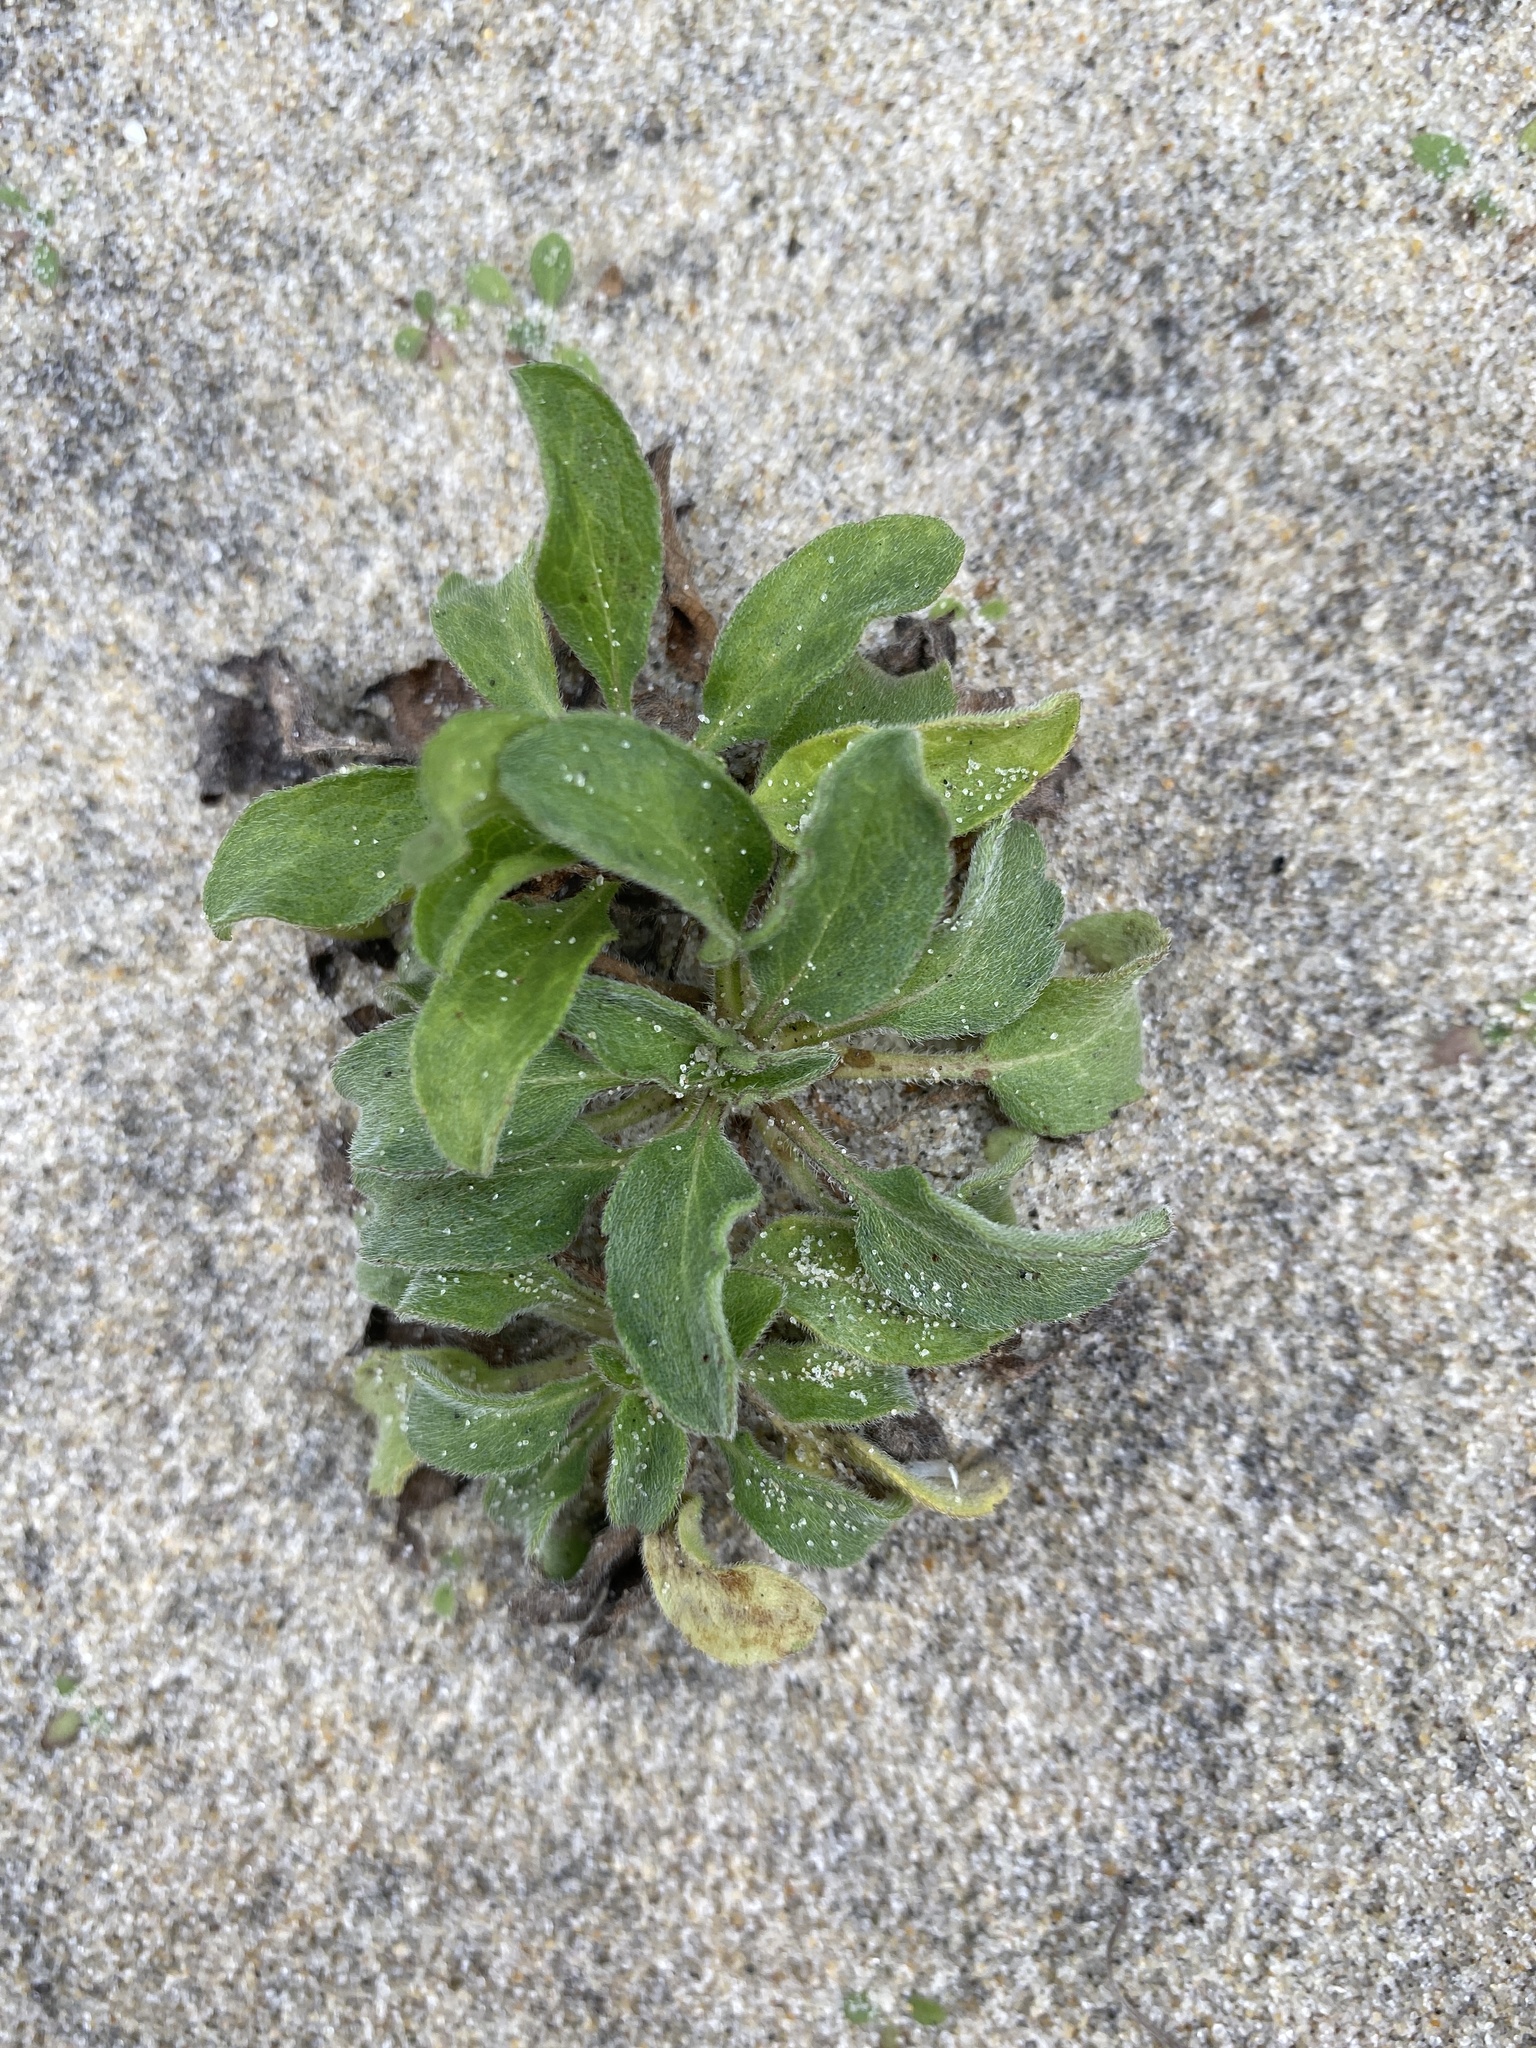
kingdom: Plantae
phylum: Tracheophyta
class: Magnoliopsida
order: Asterales
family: Asteraceae
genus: Heterotheca
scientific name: Heterotheca subaxillaris
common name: Camphorweed
